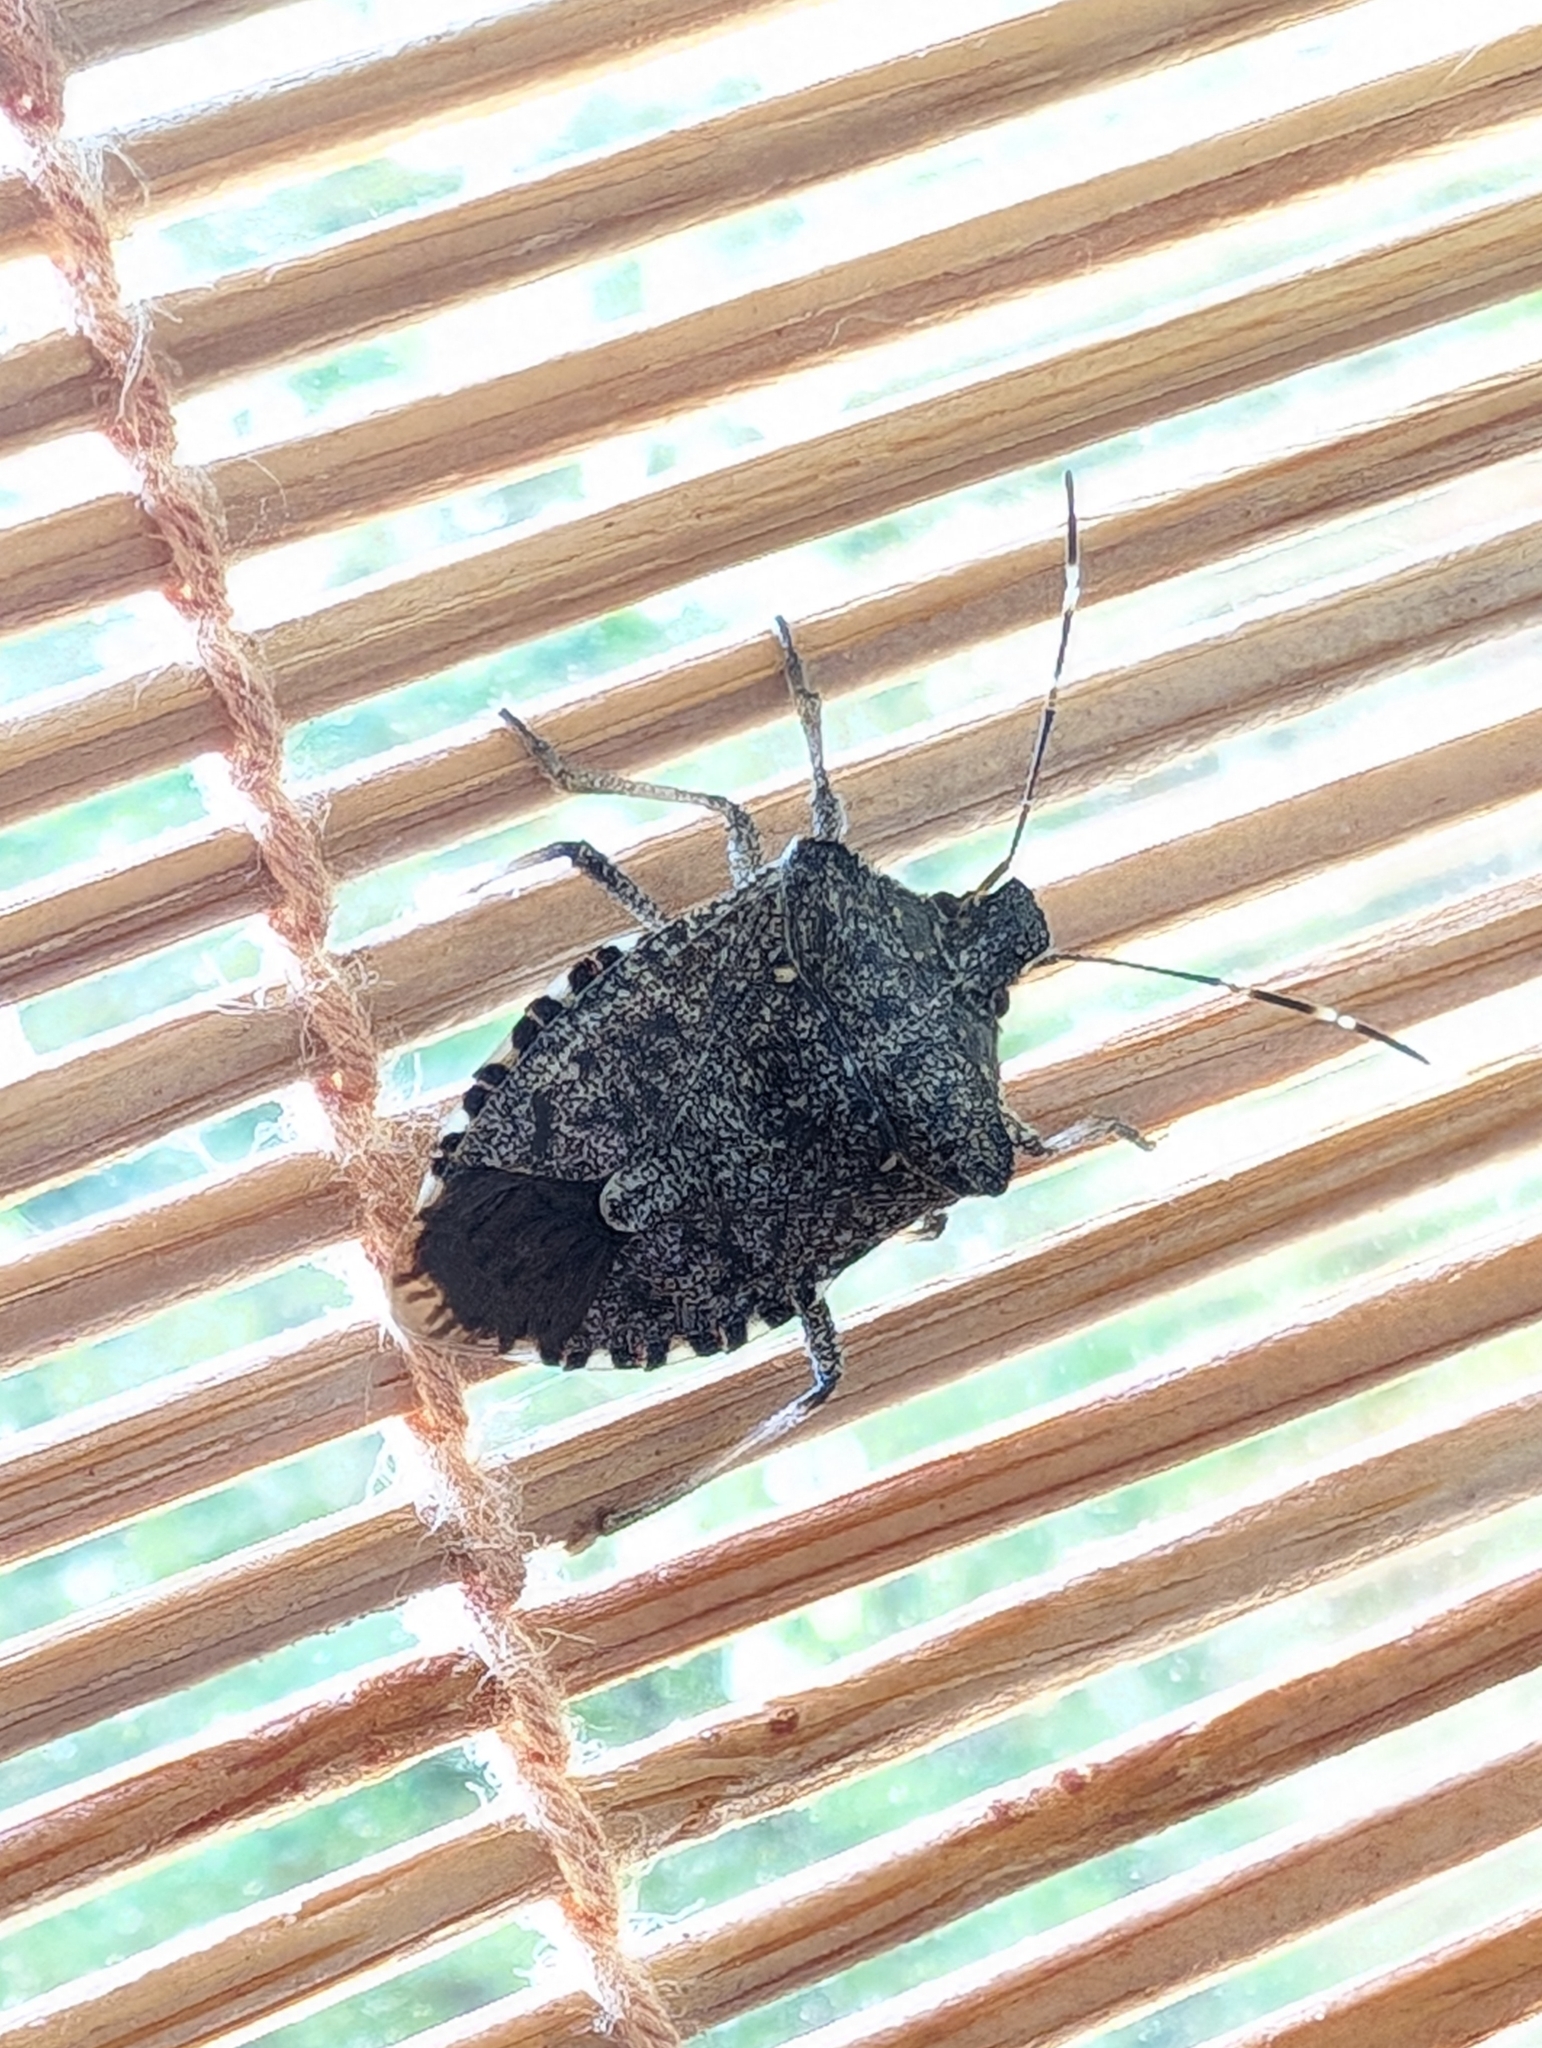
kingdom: Animalia
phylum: Arthropoda
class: Insecta
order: Hemiptera
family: Pentatomidae
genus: Halyomorpha
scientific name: Halyomorpha halys
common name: Brown marmorated stink bug
